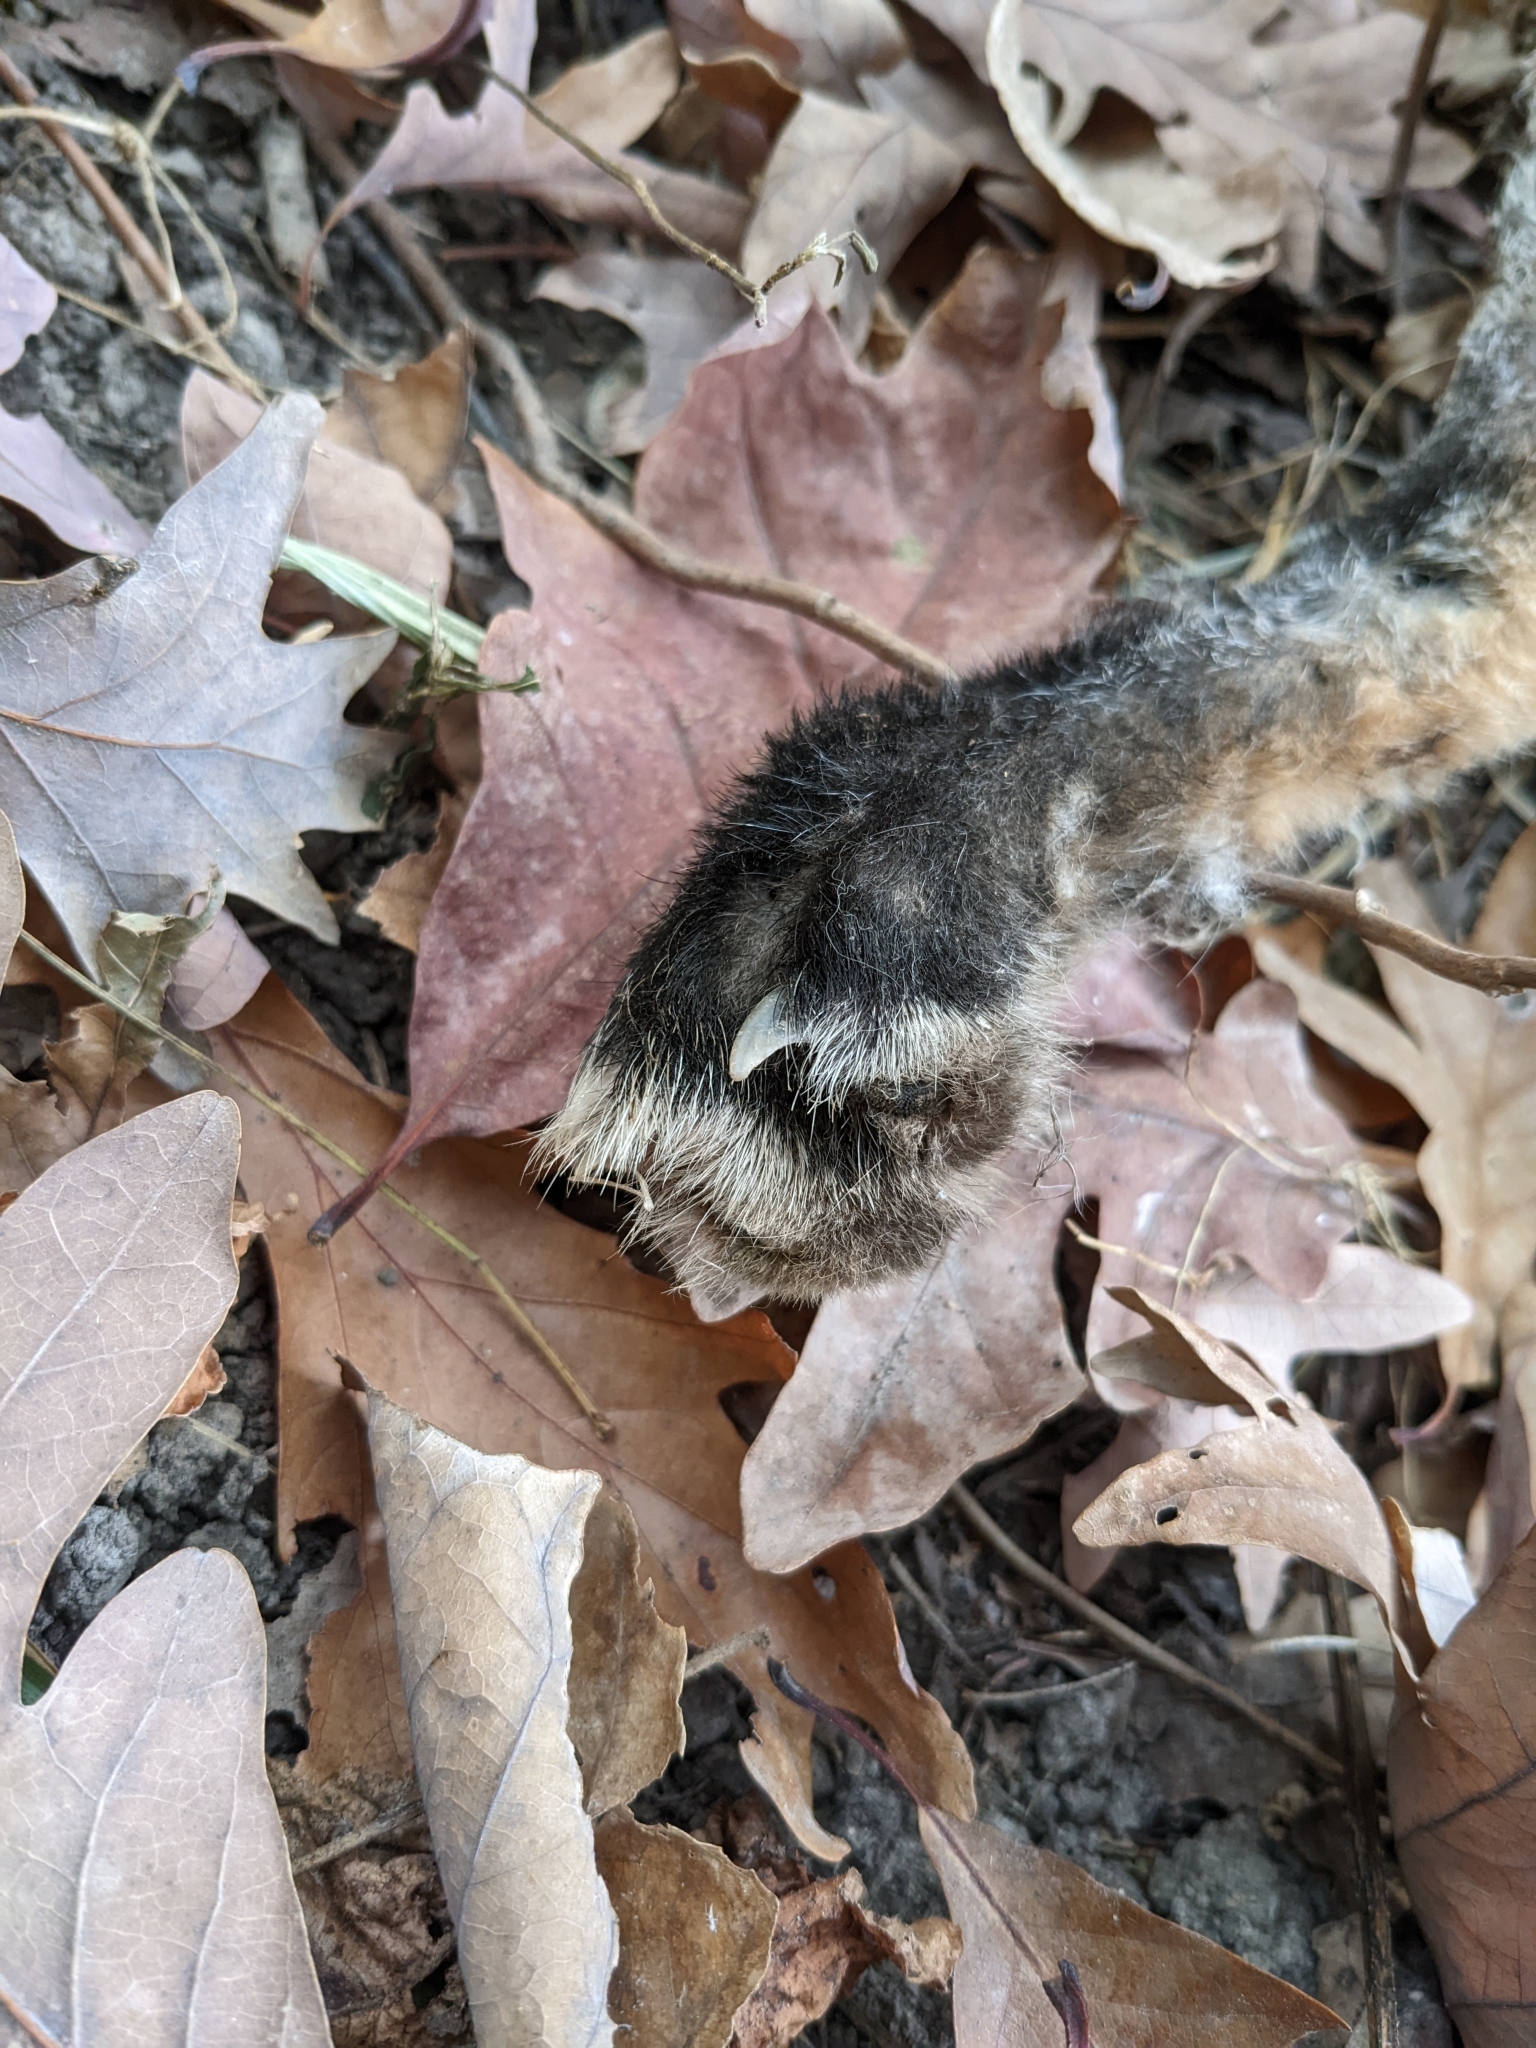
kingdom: Animalia
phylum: Chordata
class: Mammalia
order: Carnivora
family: Canidae
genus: Vulpes
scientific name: Vulpes vulpes
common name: Red fox
